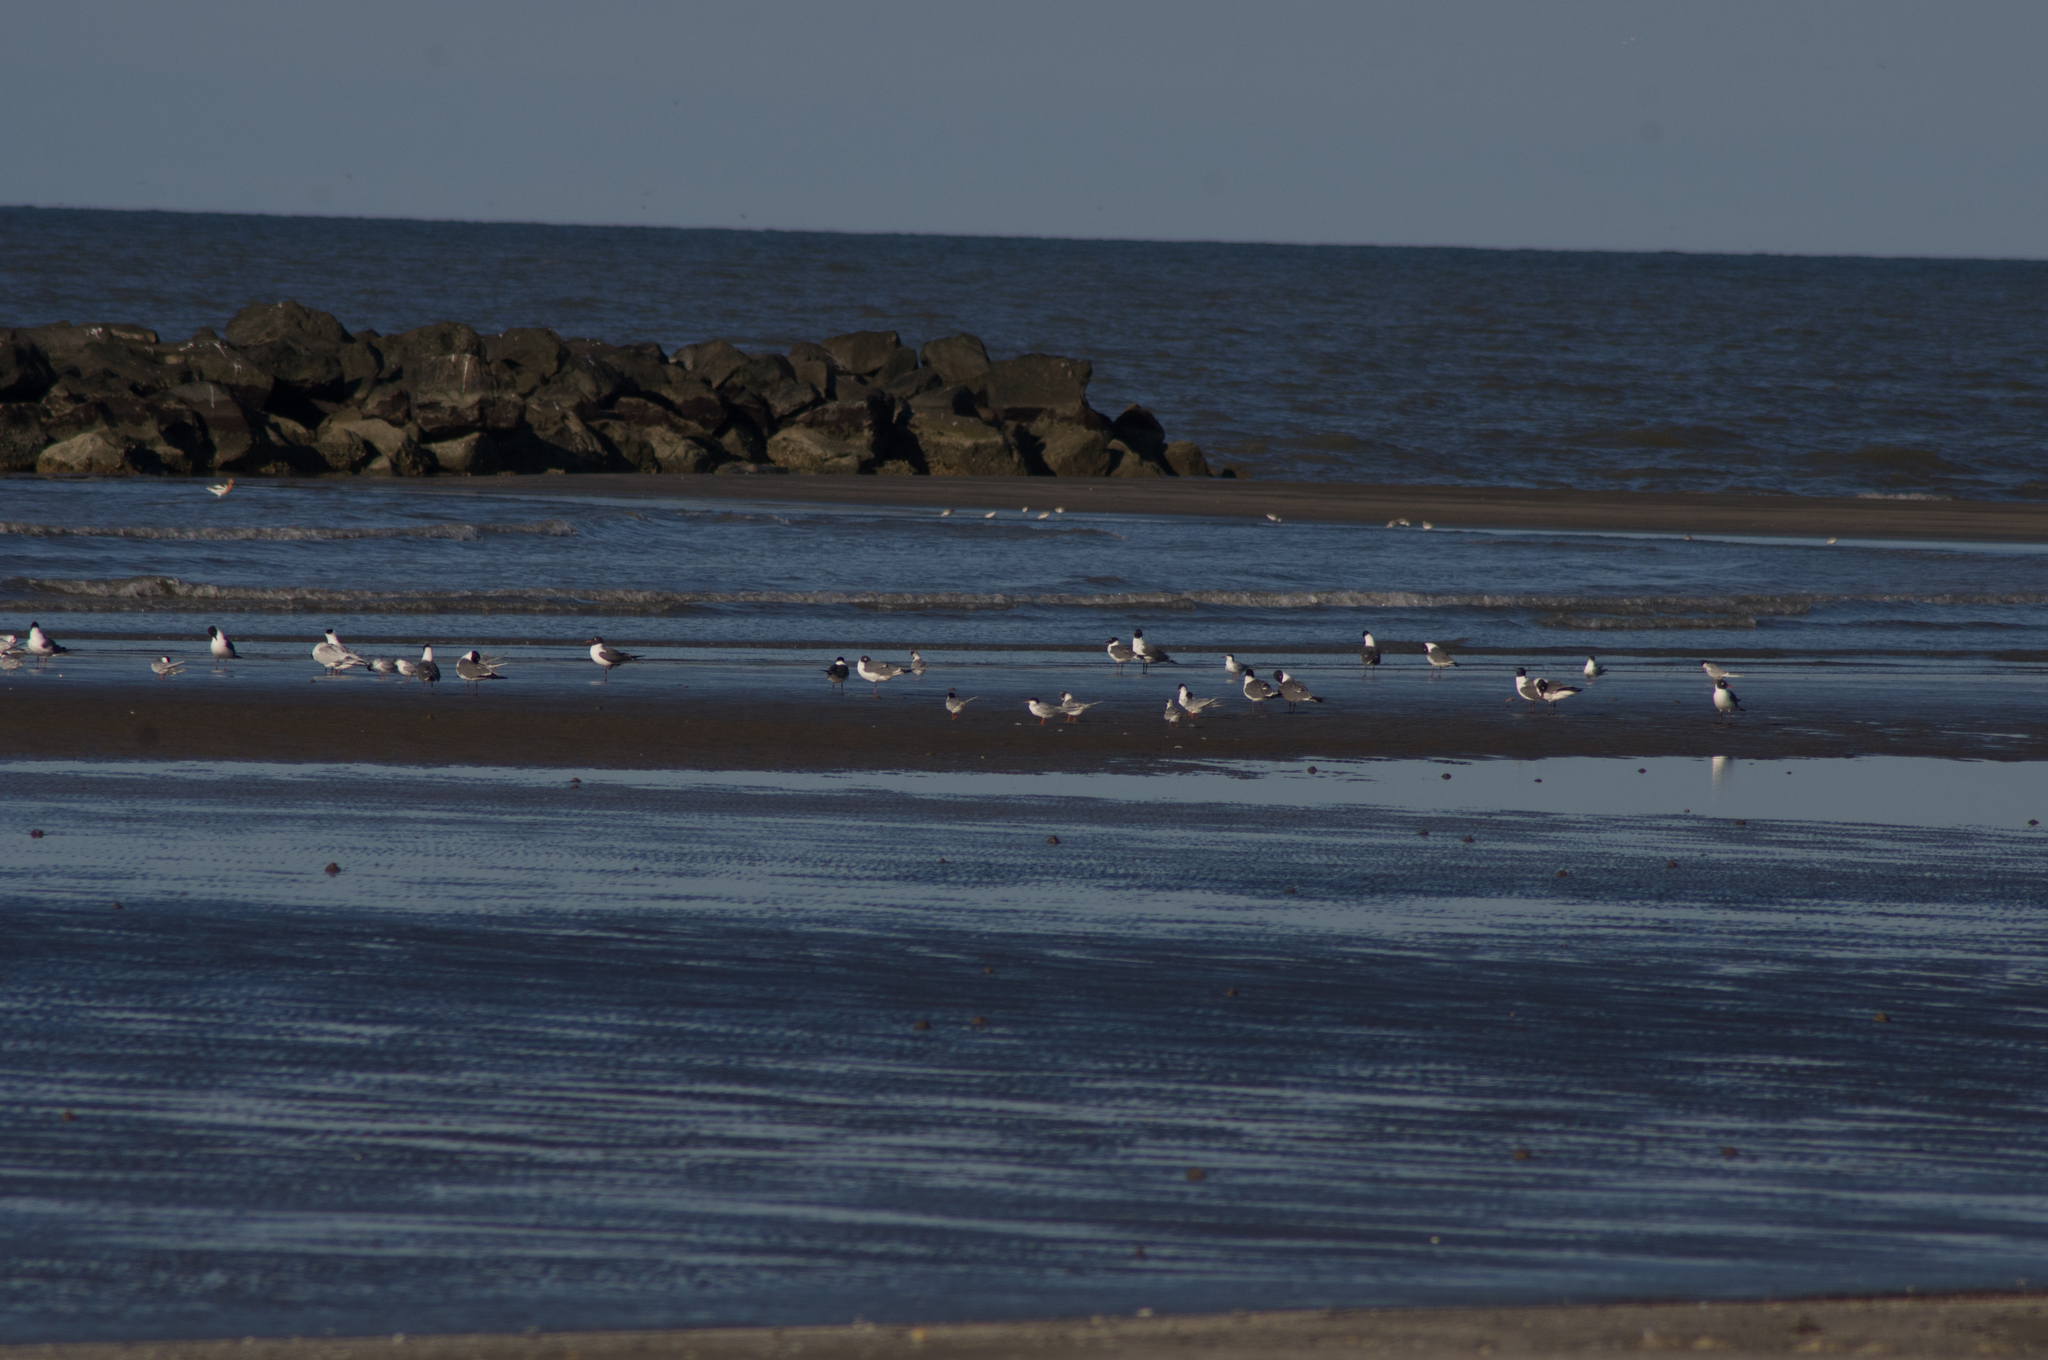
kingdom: Animalia
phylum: Chordata
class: Aves
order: Charadriiformes
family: Laridae
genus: Leucophaeus
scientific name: Leucophaeus atricilla
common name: Laughing gull
